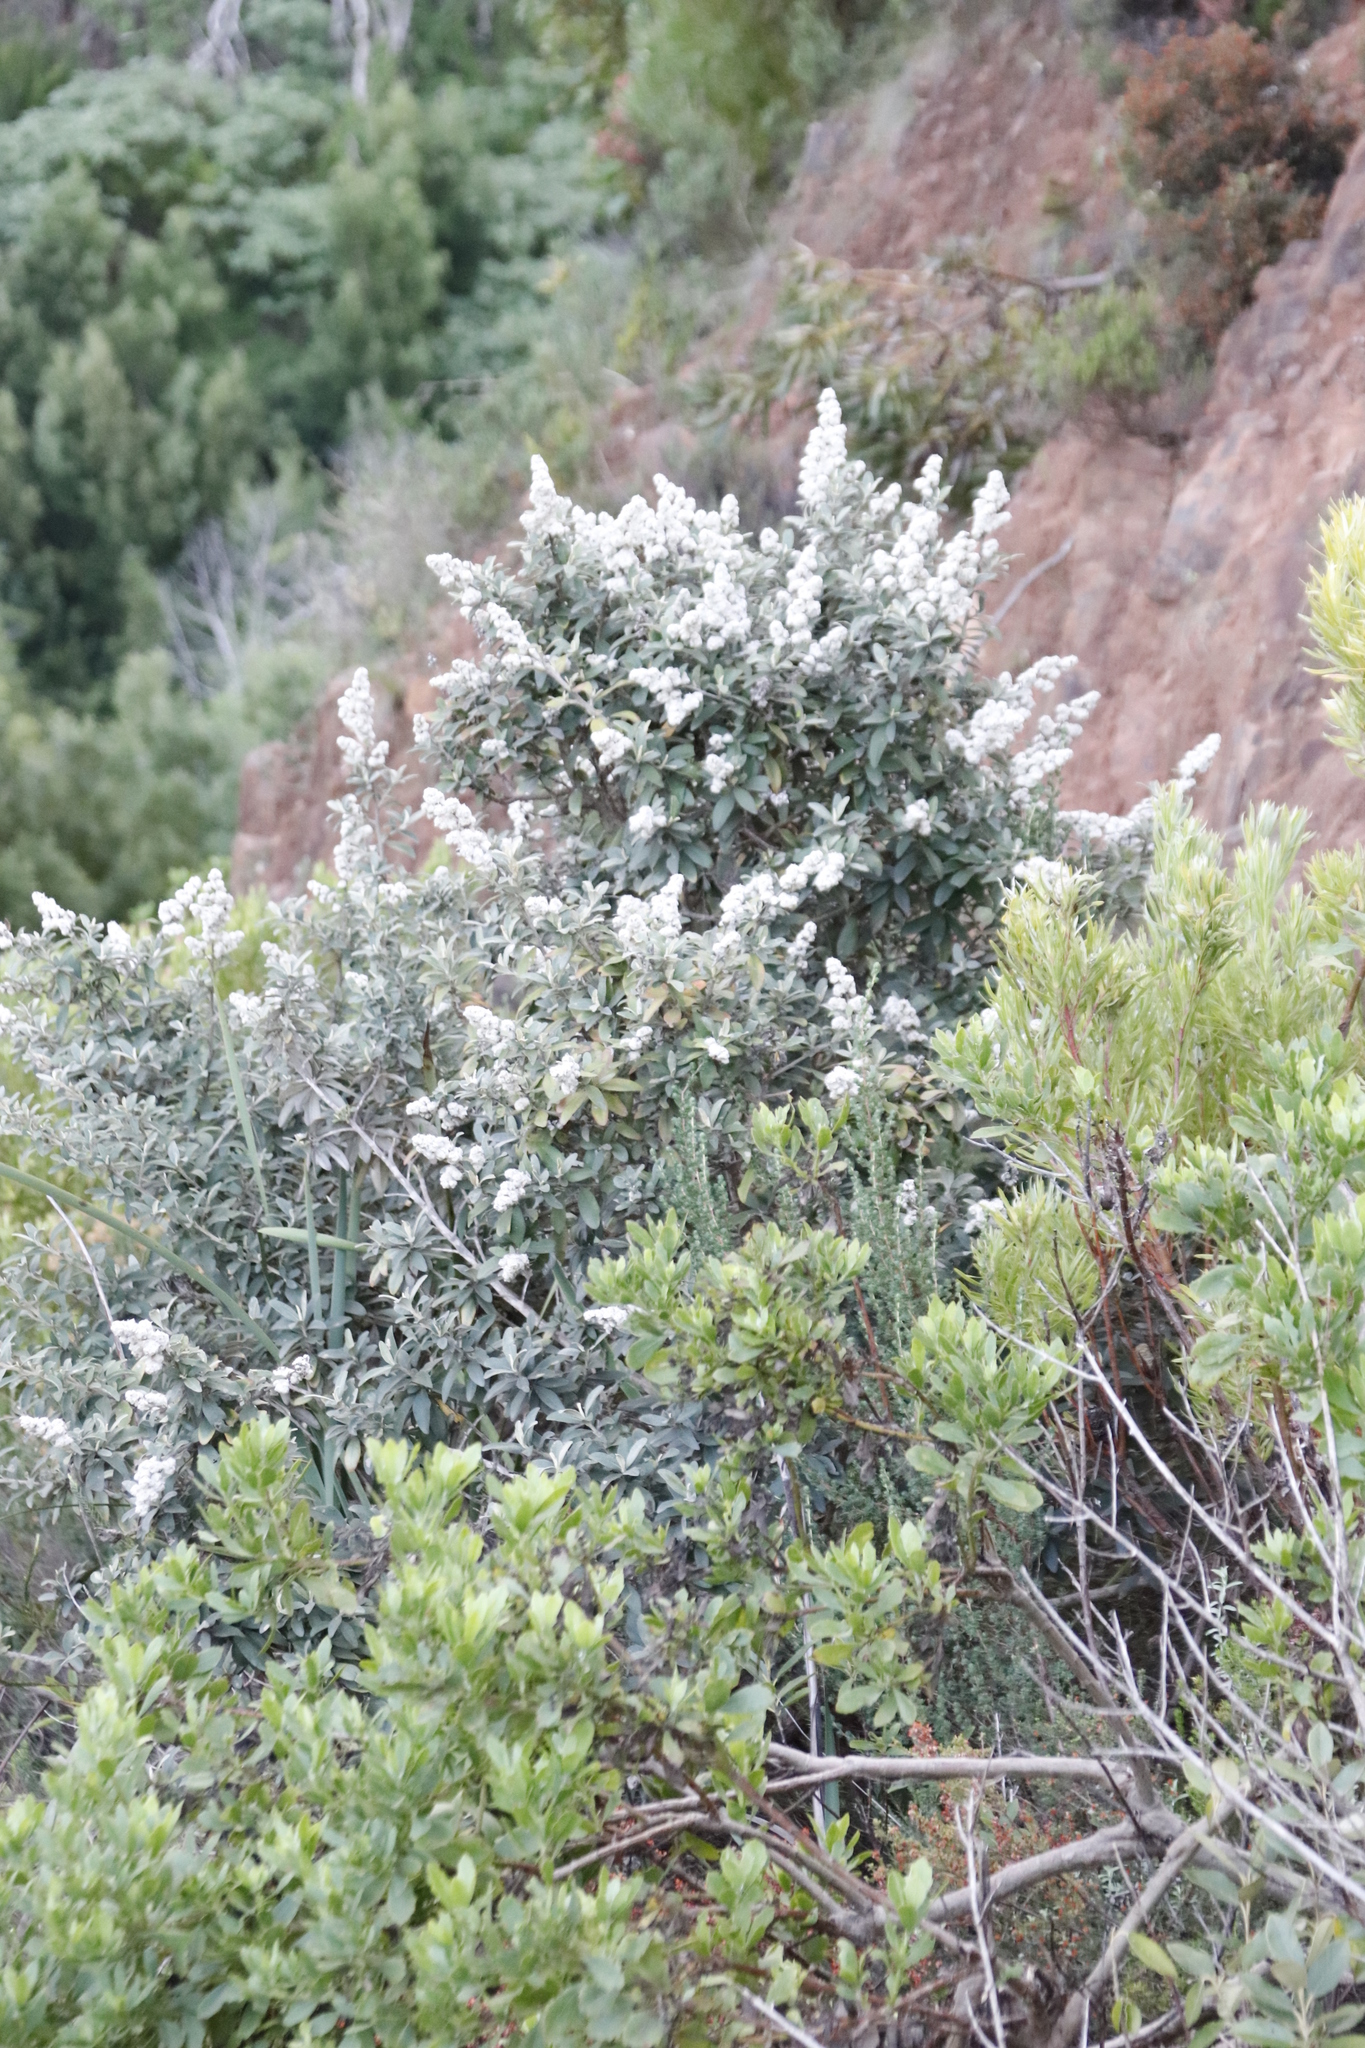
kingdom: Plantae
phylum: Tracheophyta
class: Magnoliopsida
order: Asterales
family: Asteraceae
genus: Tarchonanthus
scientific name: Tarchonanthus littoralis
